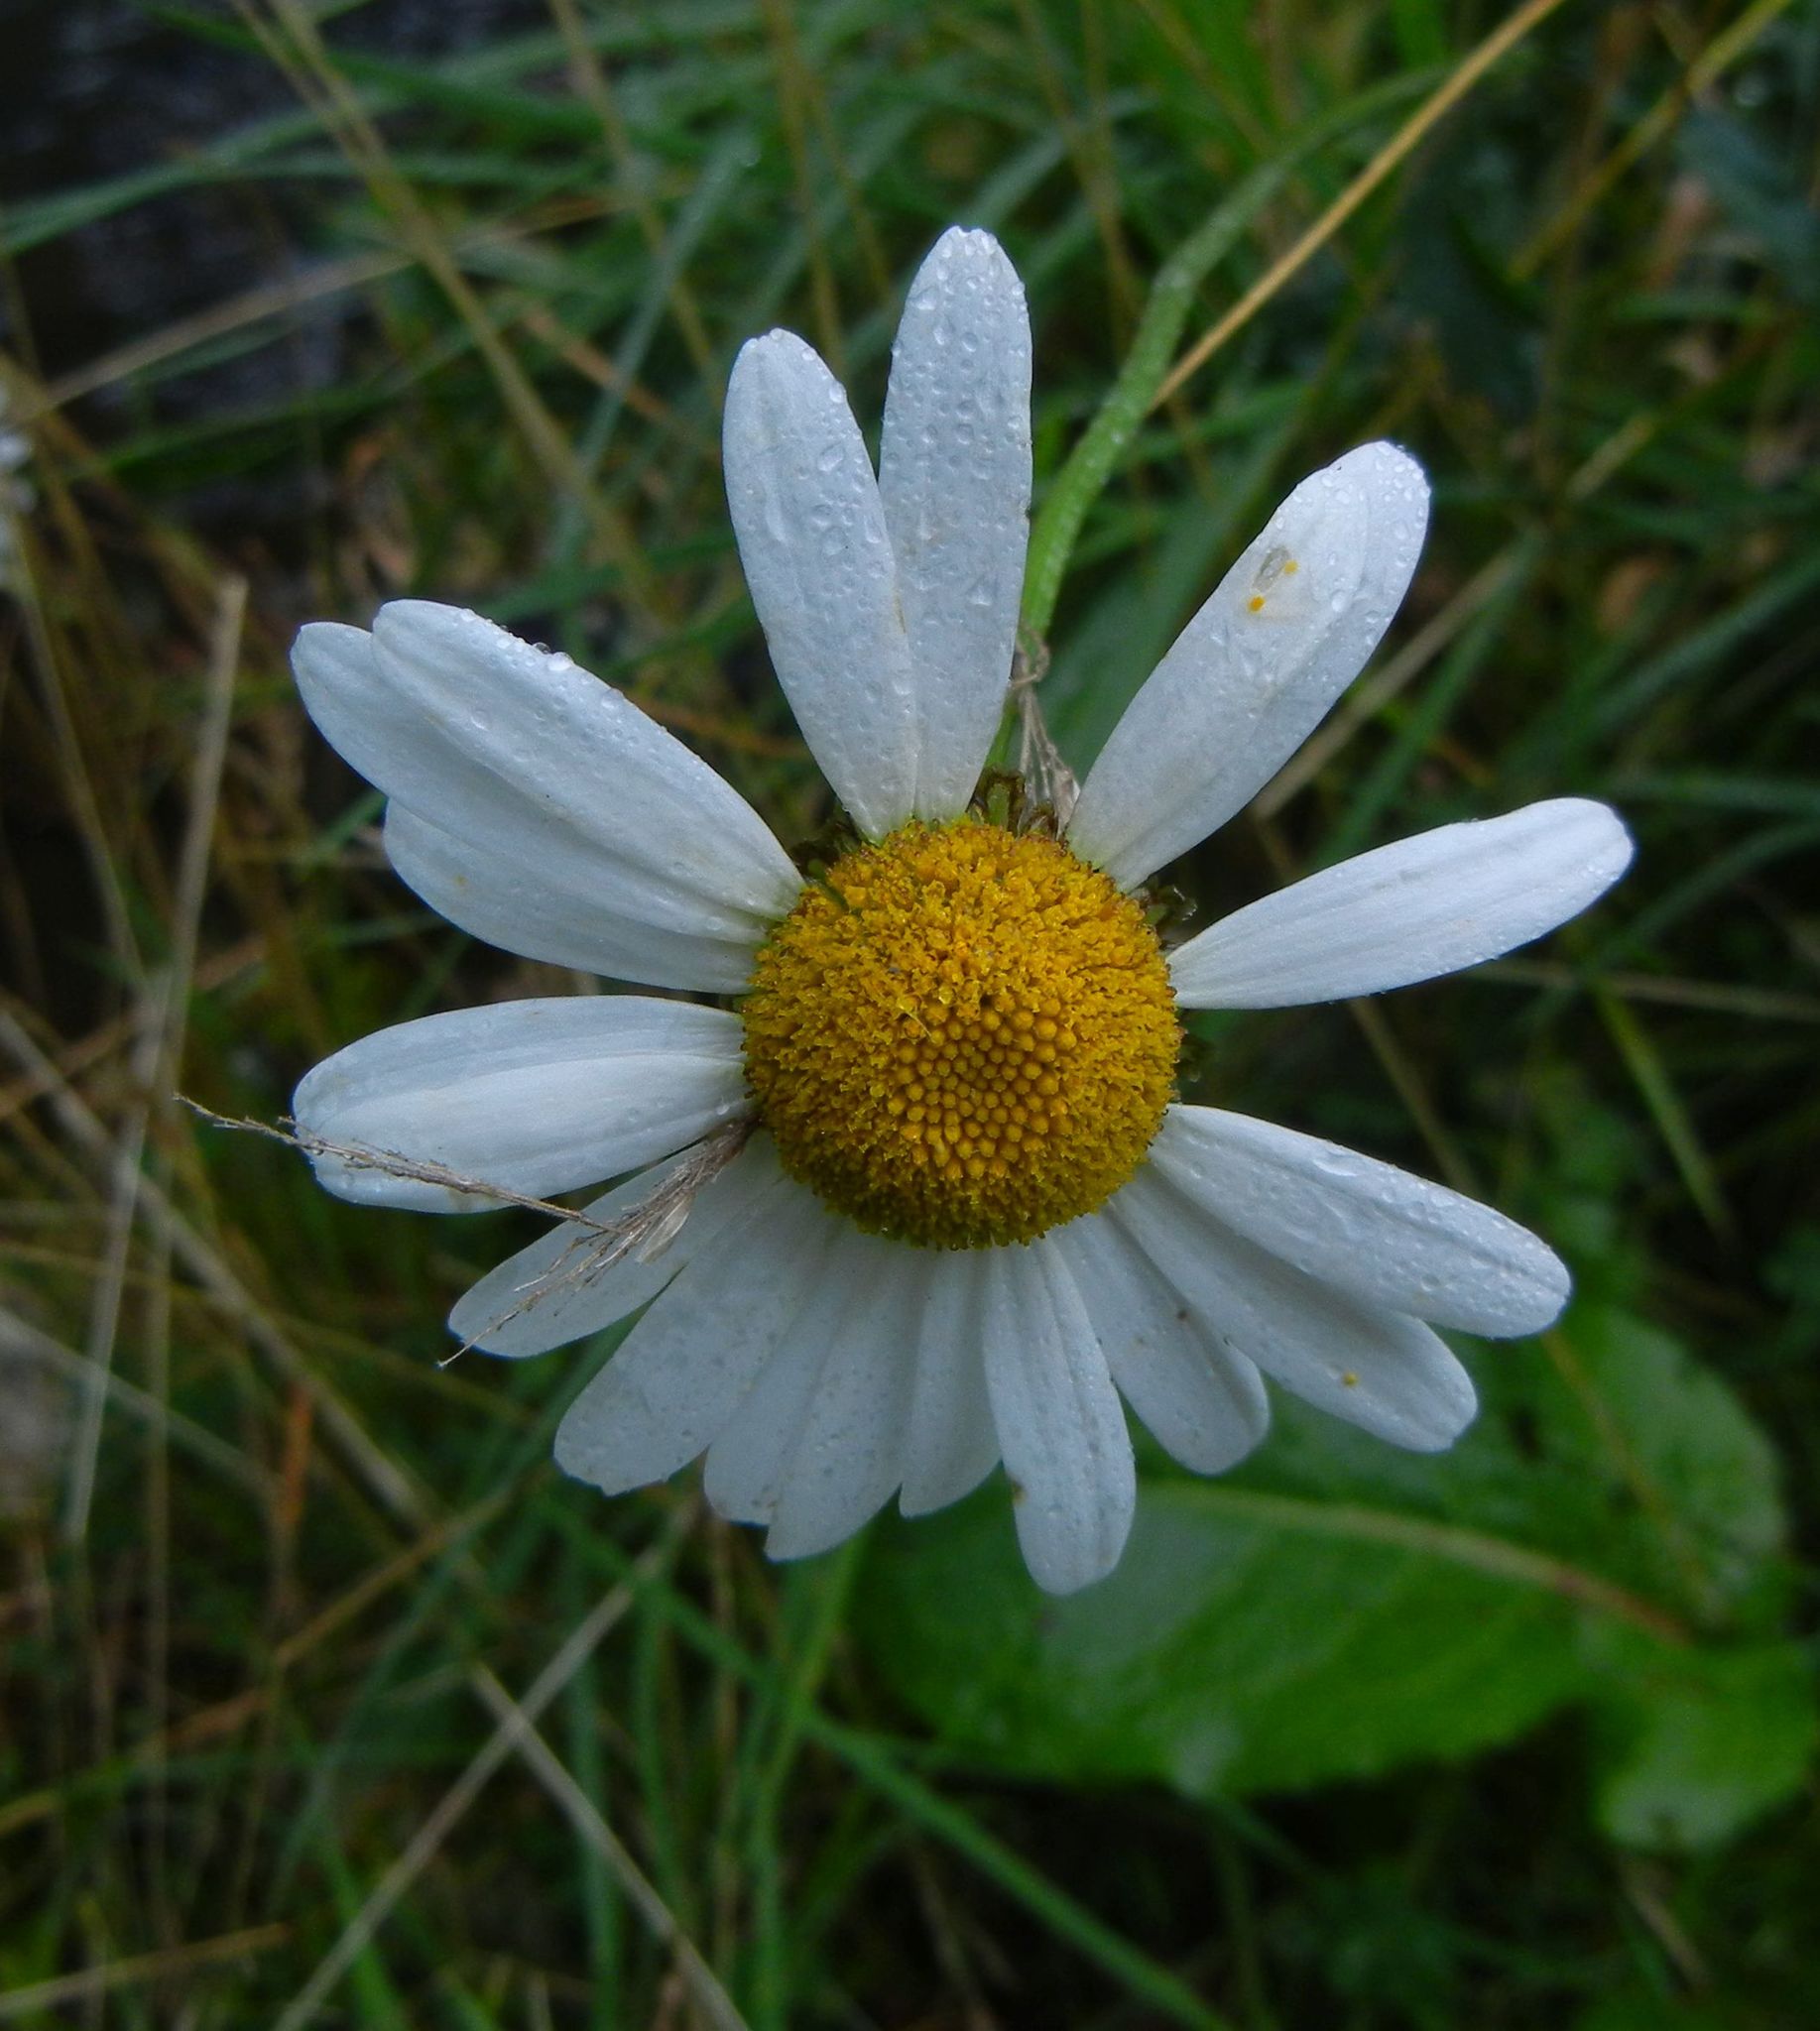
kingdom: Plantae
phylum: Tracheophyta
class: Magnoliopsida
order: Asterales
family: Asteraceae
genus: Leucanthemum
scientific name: Leucanthemum vulgare
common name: Oxeye daisy
